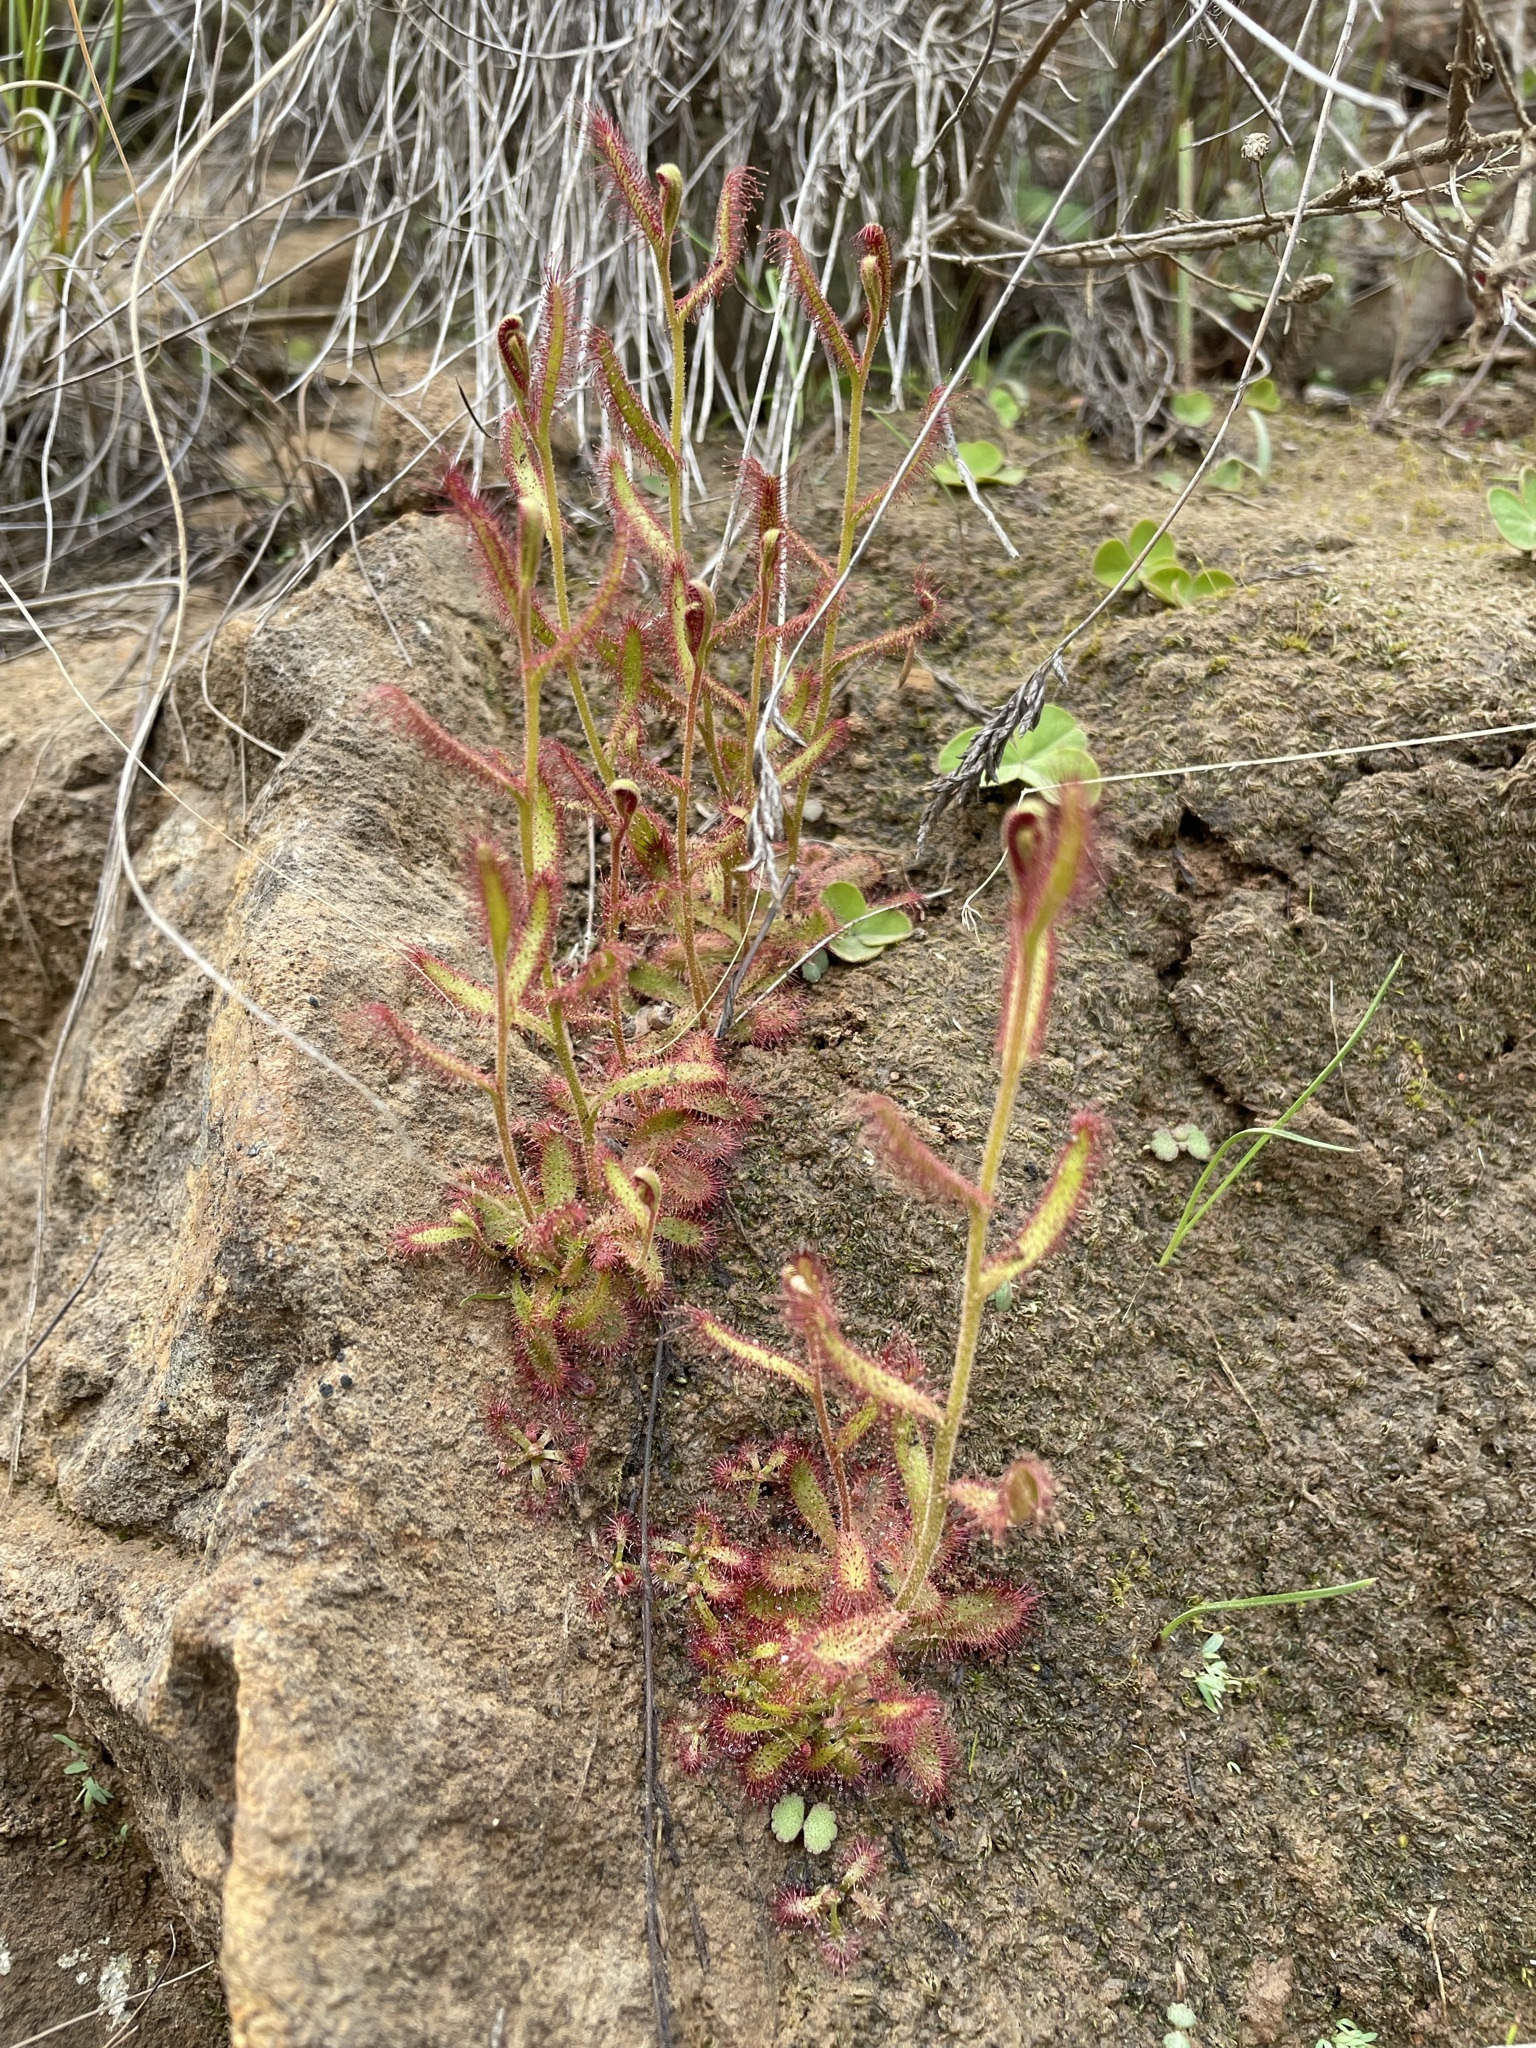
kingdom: Plantae
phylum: Tracheophyta
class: Magnoliopsida
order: Caryophyllales
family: Droseraceae
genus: Drosera
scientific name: Drosera cistiflora
